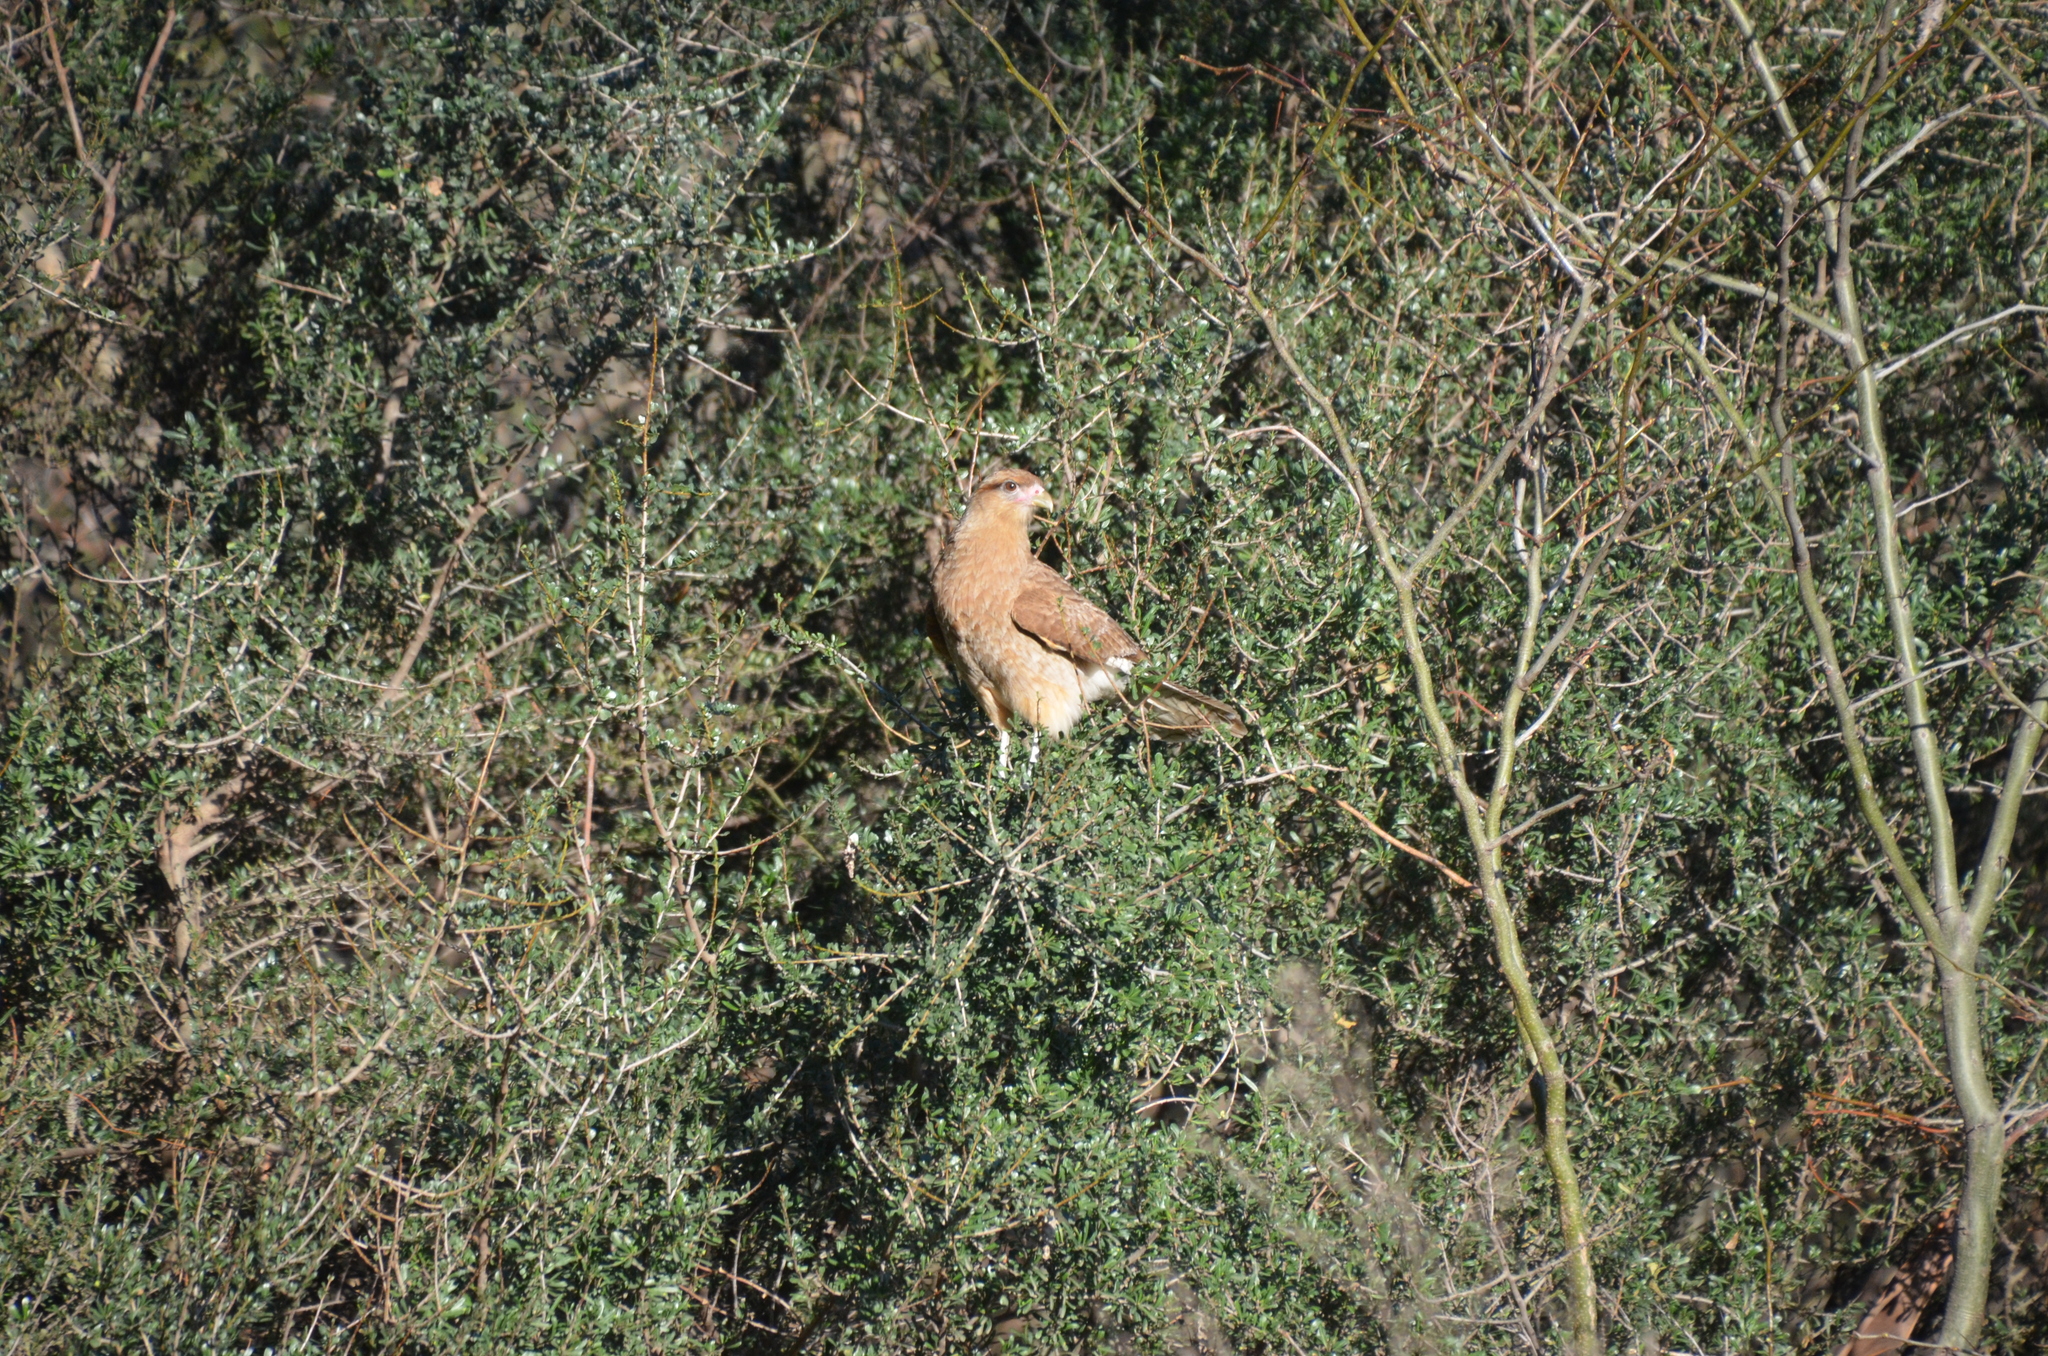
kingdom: Animalia
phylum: Chordata
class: Aves
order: Falconiformes
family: Falconidae
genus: Daptrius
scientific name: Daptrius
